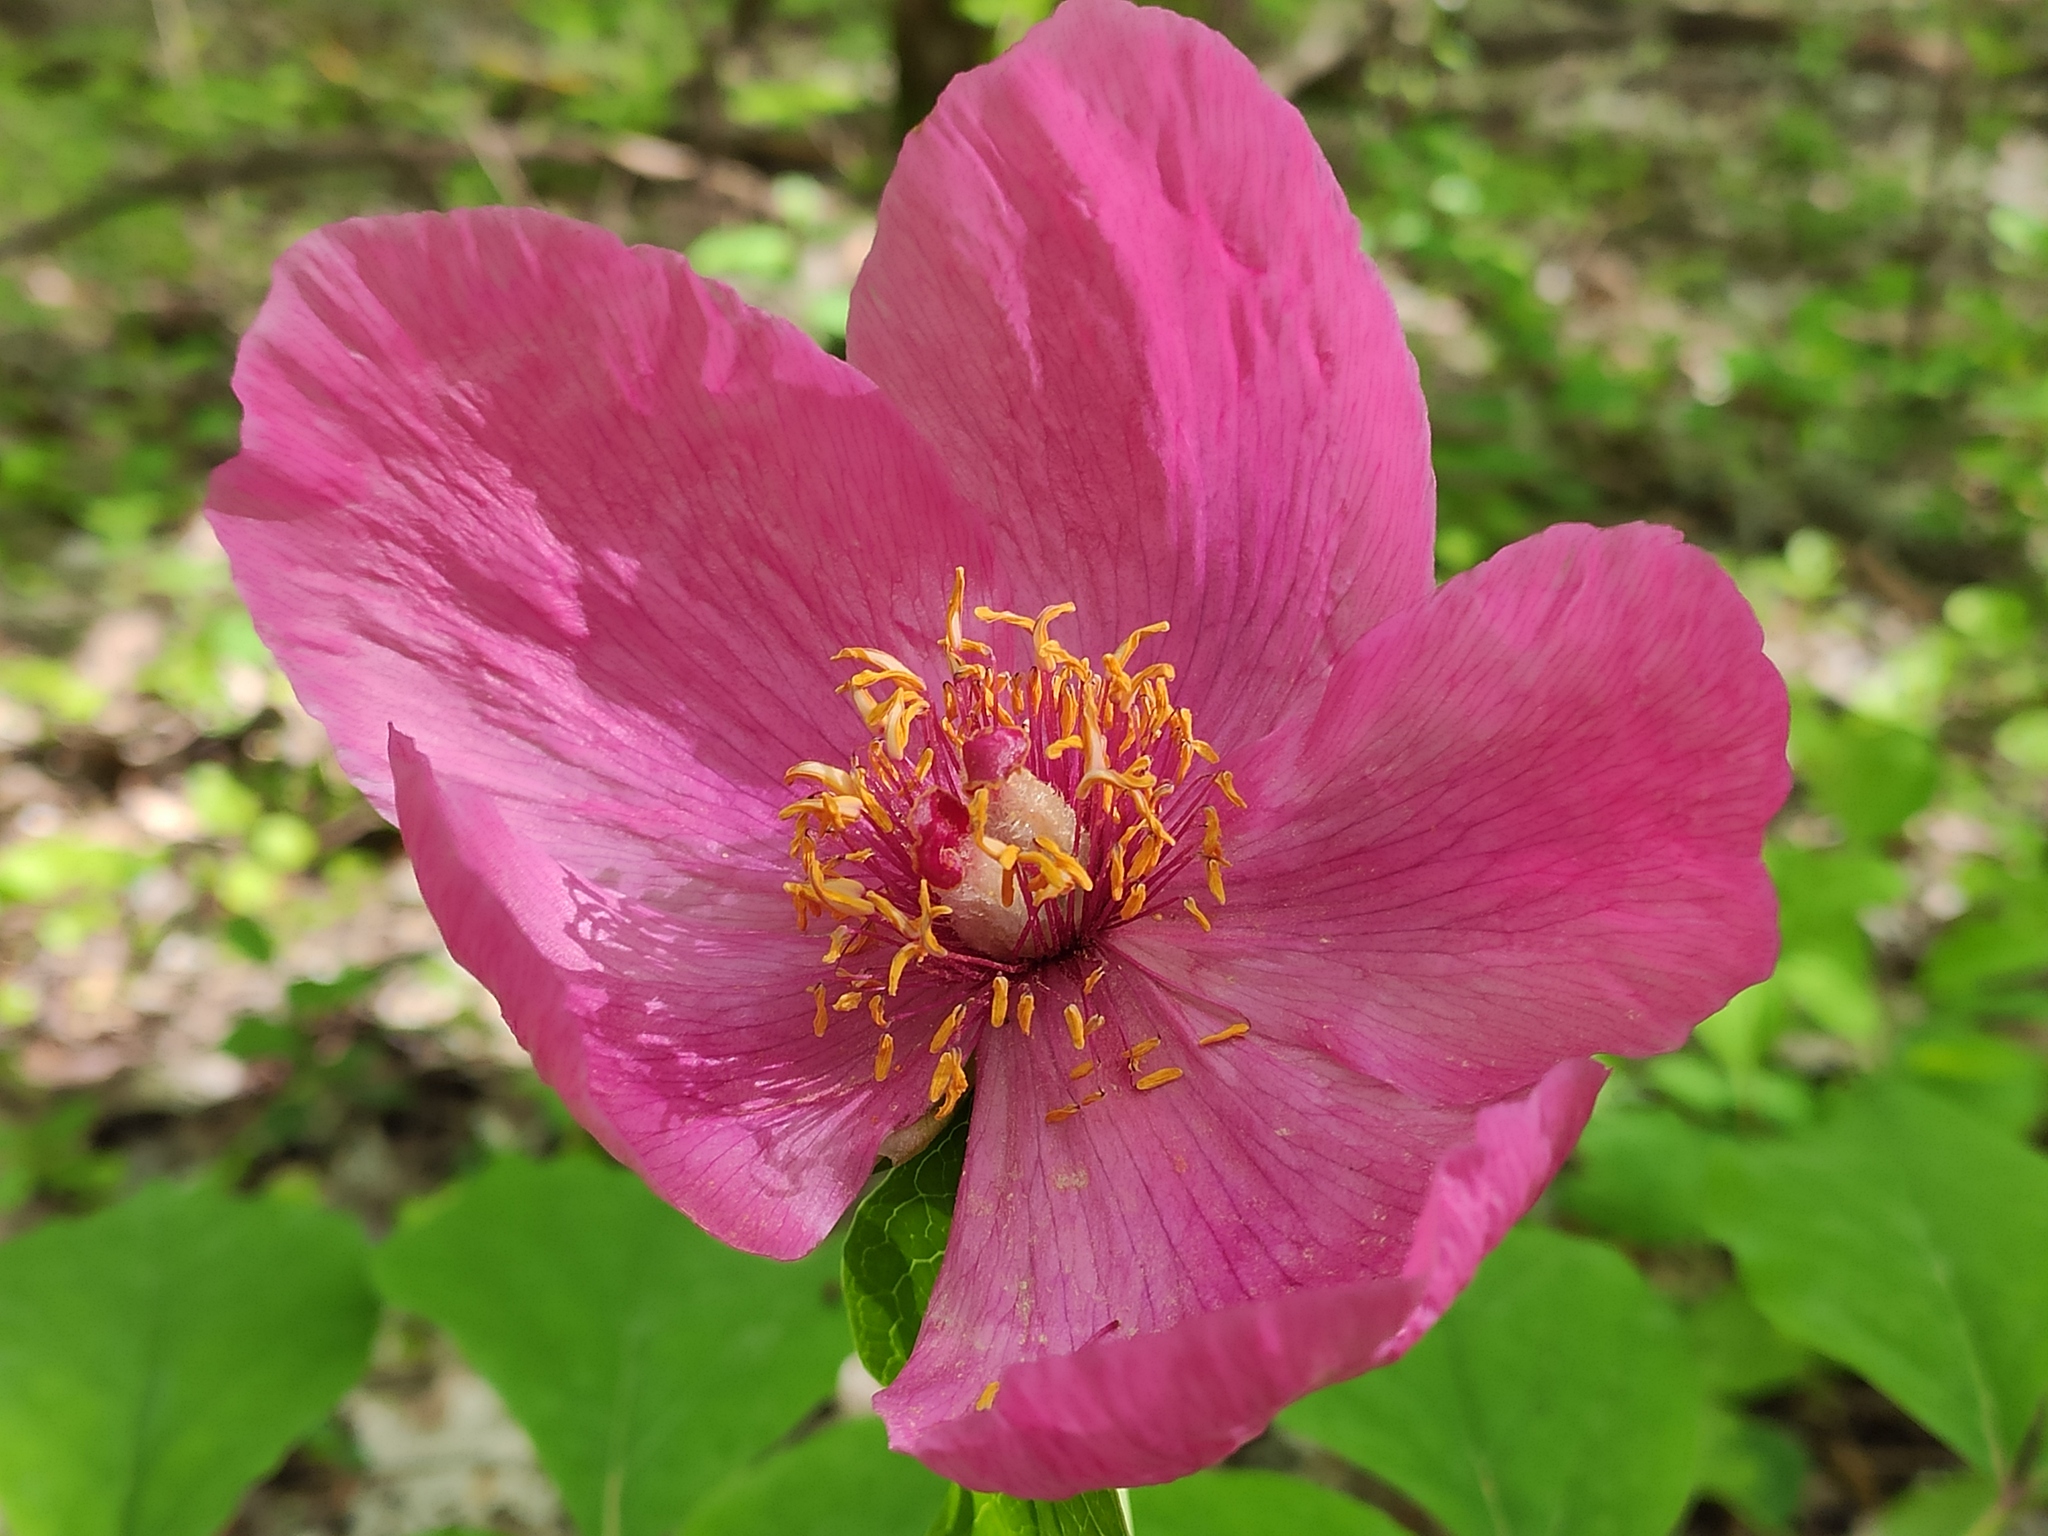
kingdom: Plantae
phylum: Tracheophyta
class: Magnoliopsida
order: Saxifragales
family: Paeoniaceae
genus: Paeonia
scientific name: Paeonia caucasica
